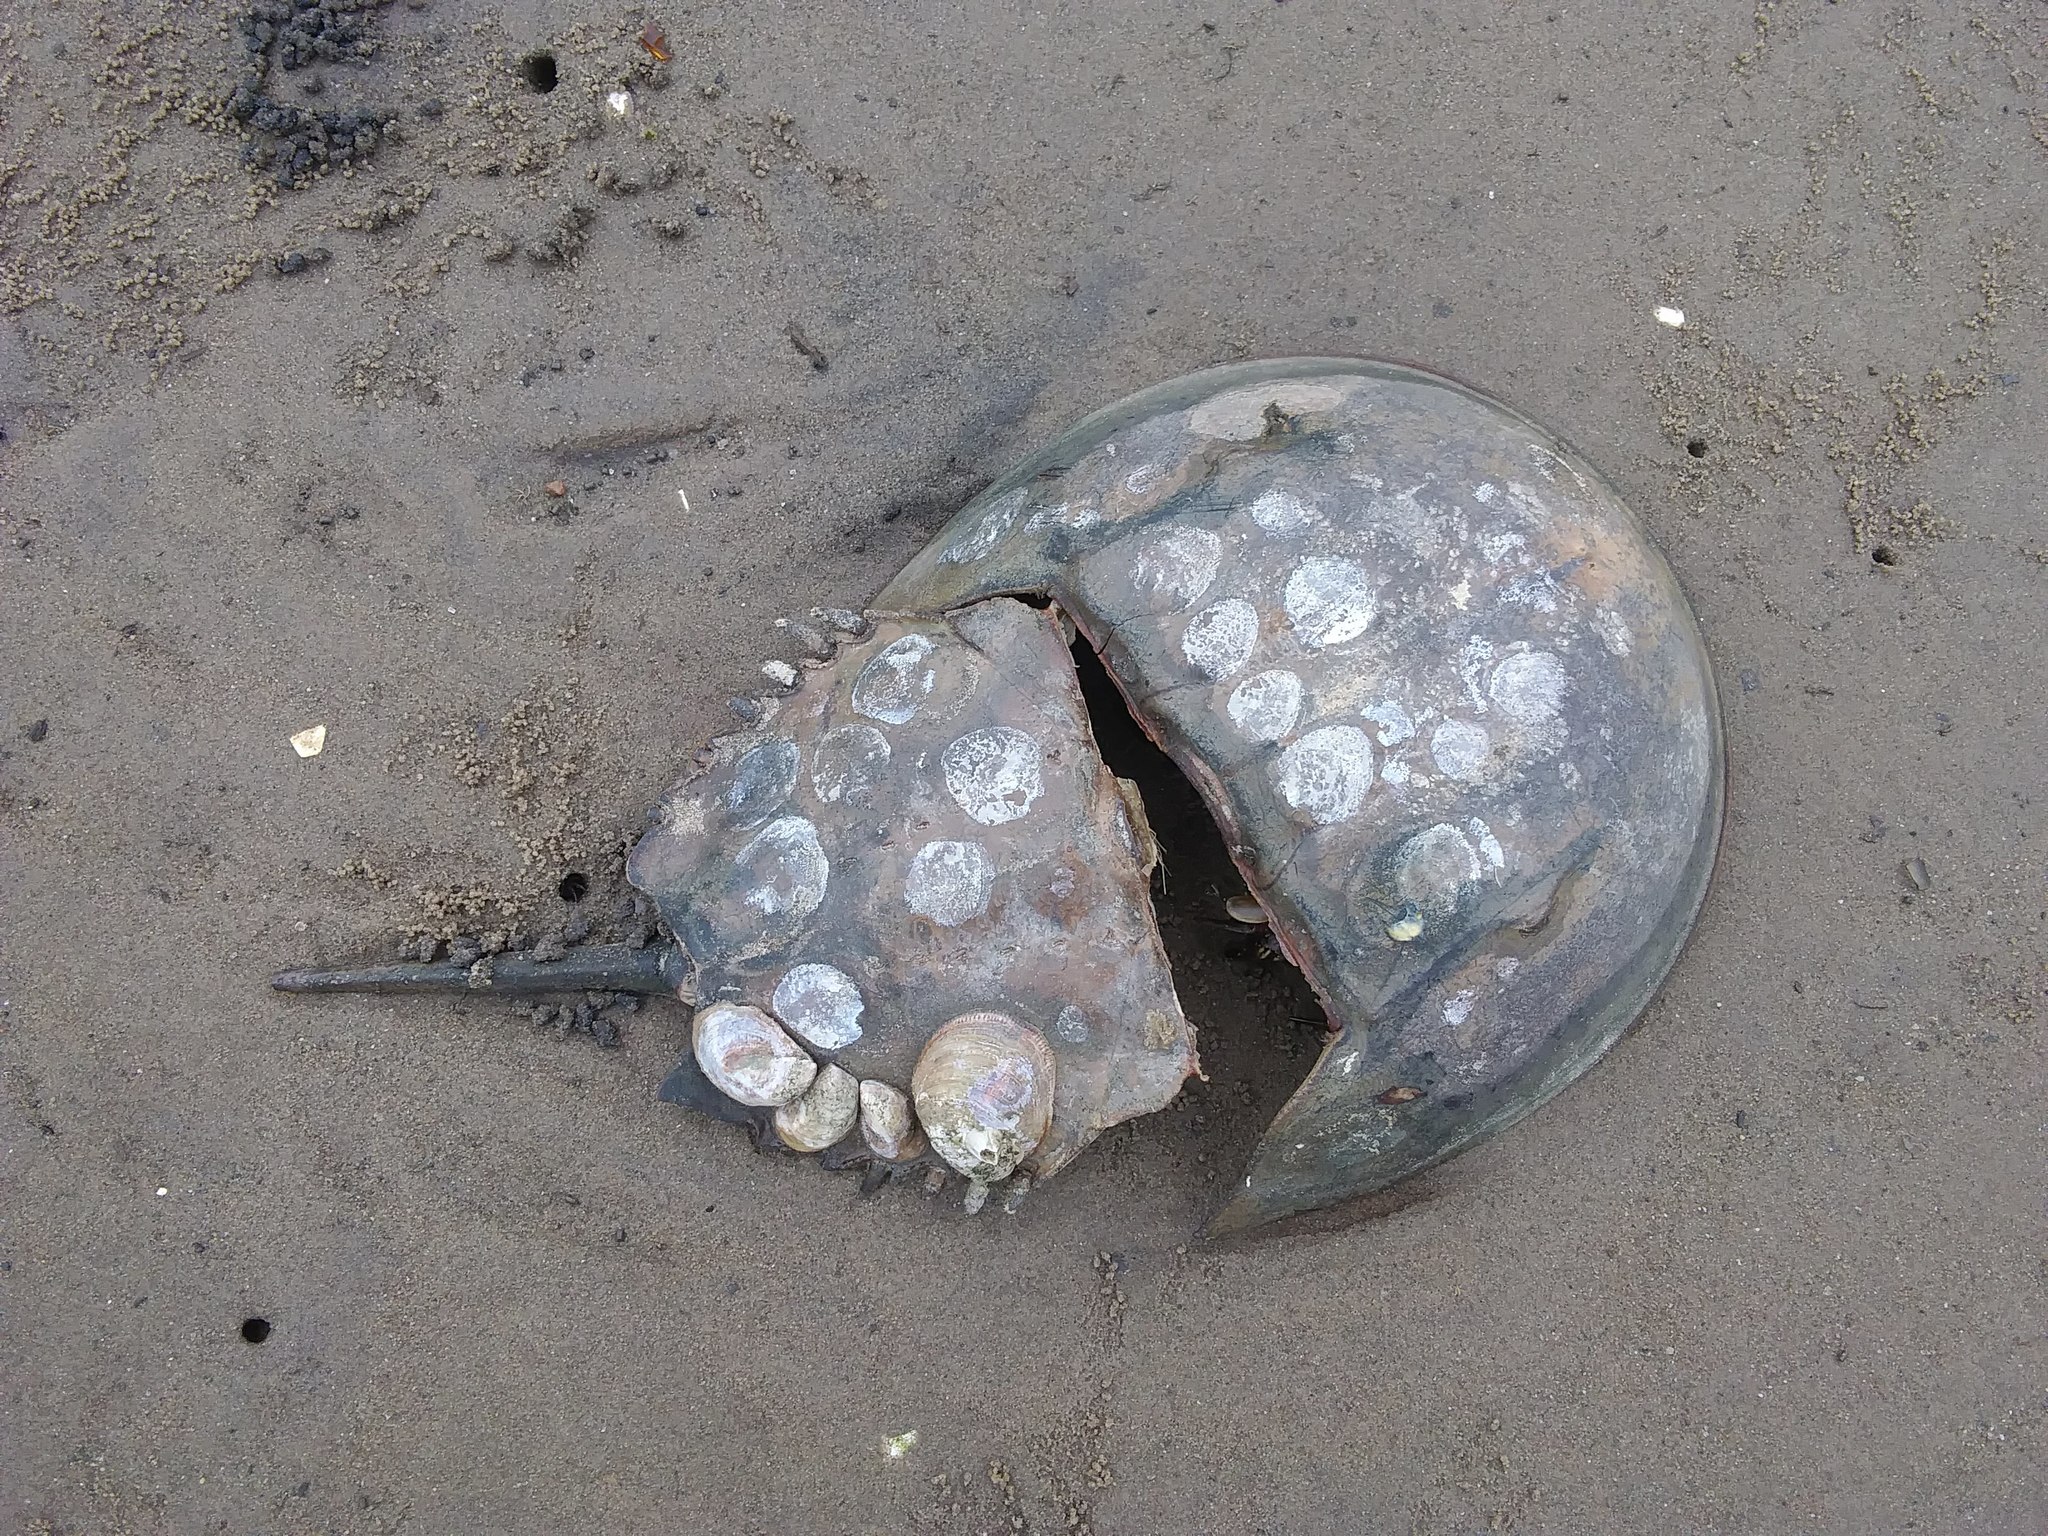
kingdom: Animalia
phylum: Arthropoda
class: Merostomata
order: Xiphosurida
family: Limulidae
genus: Limulus
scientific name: Limulus polyphemus
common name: Horseshoe crab
